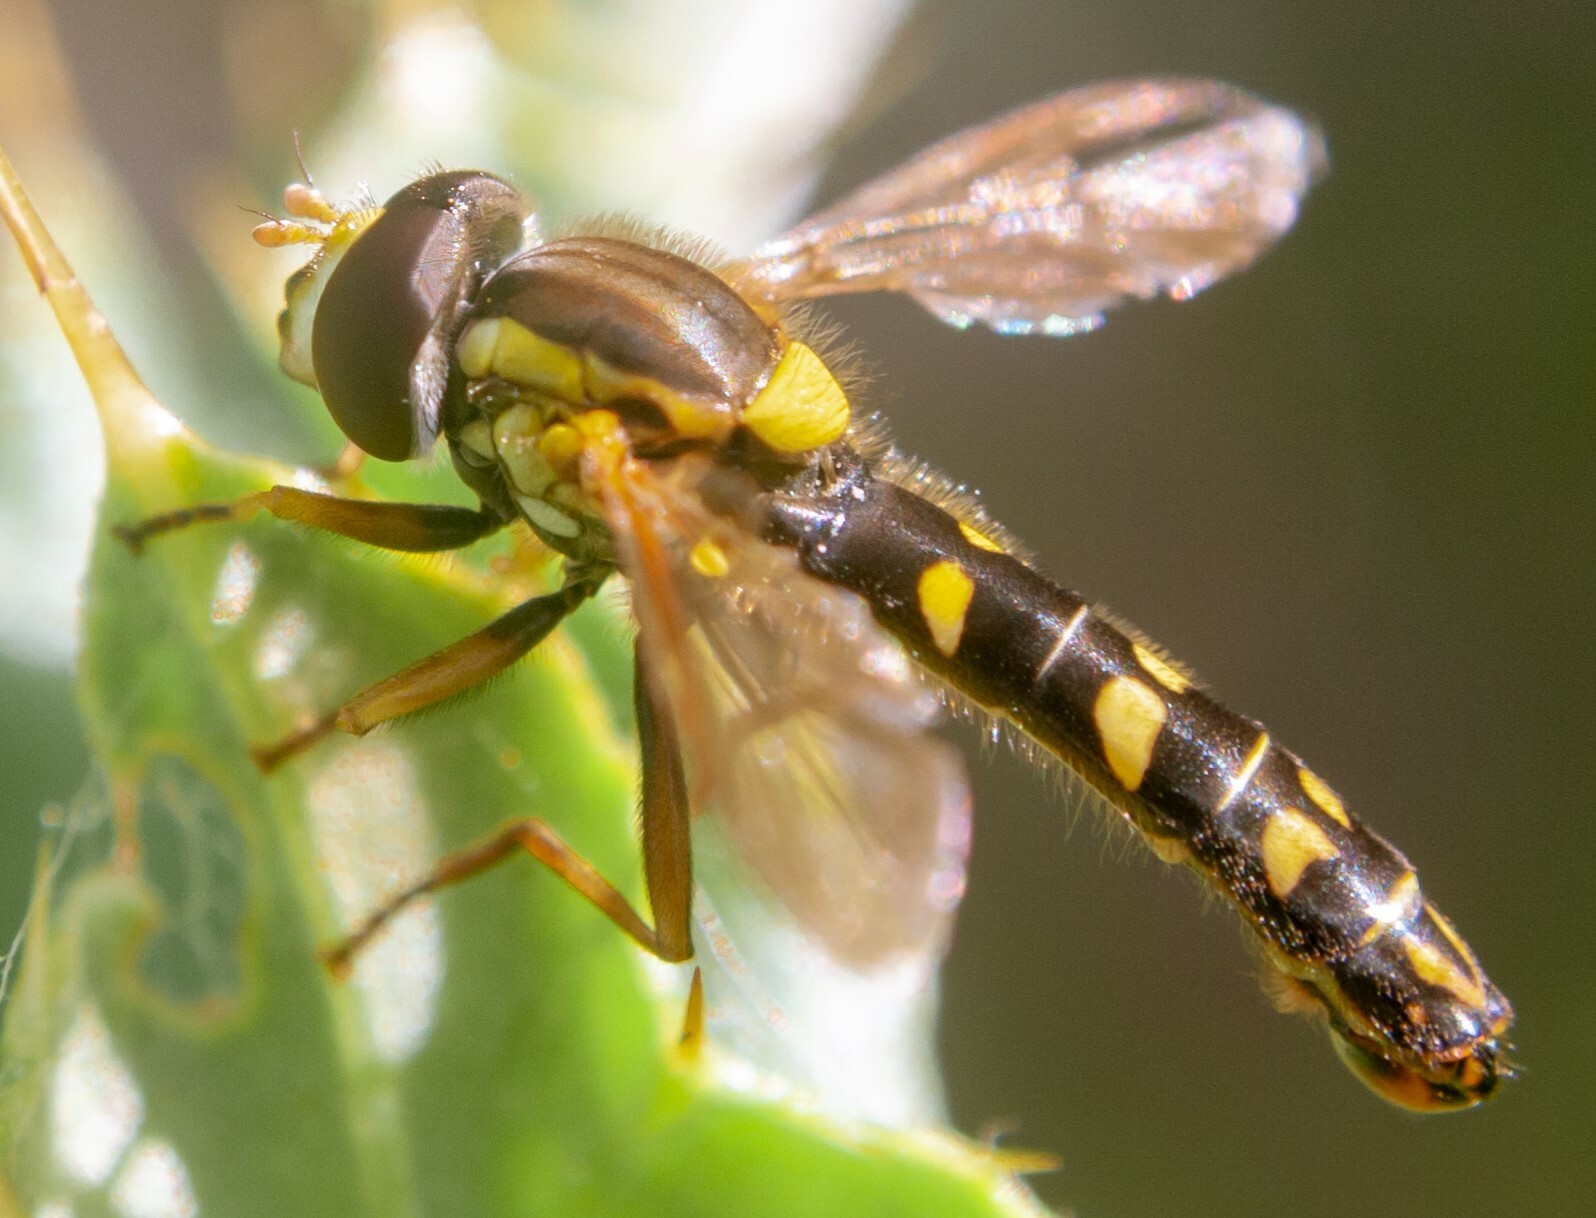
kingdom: Animalia
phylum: Arthropoda
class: Insecta
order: Diptera
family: Syrphidae
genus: Sphaerophoria
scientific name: Sphaerophoria scripta
